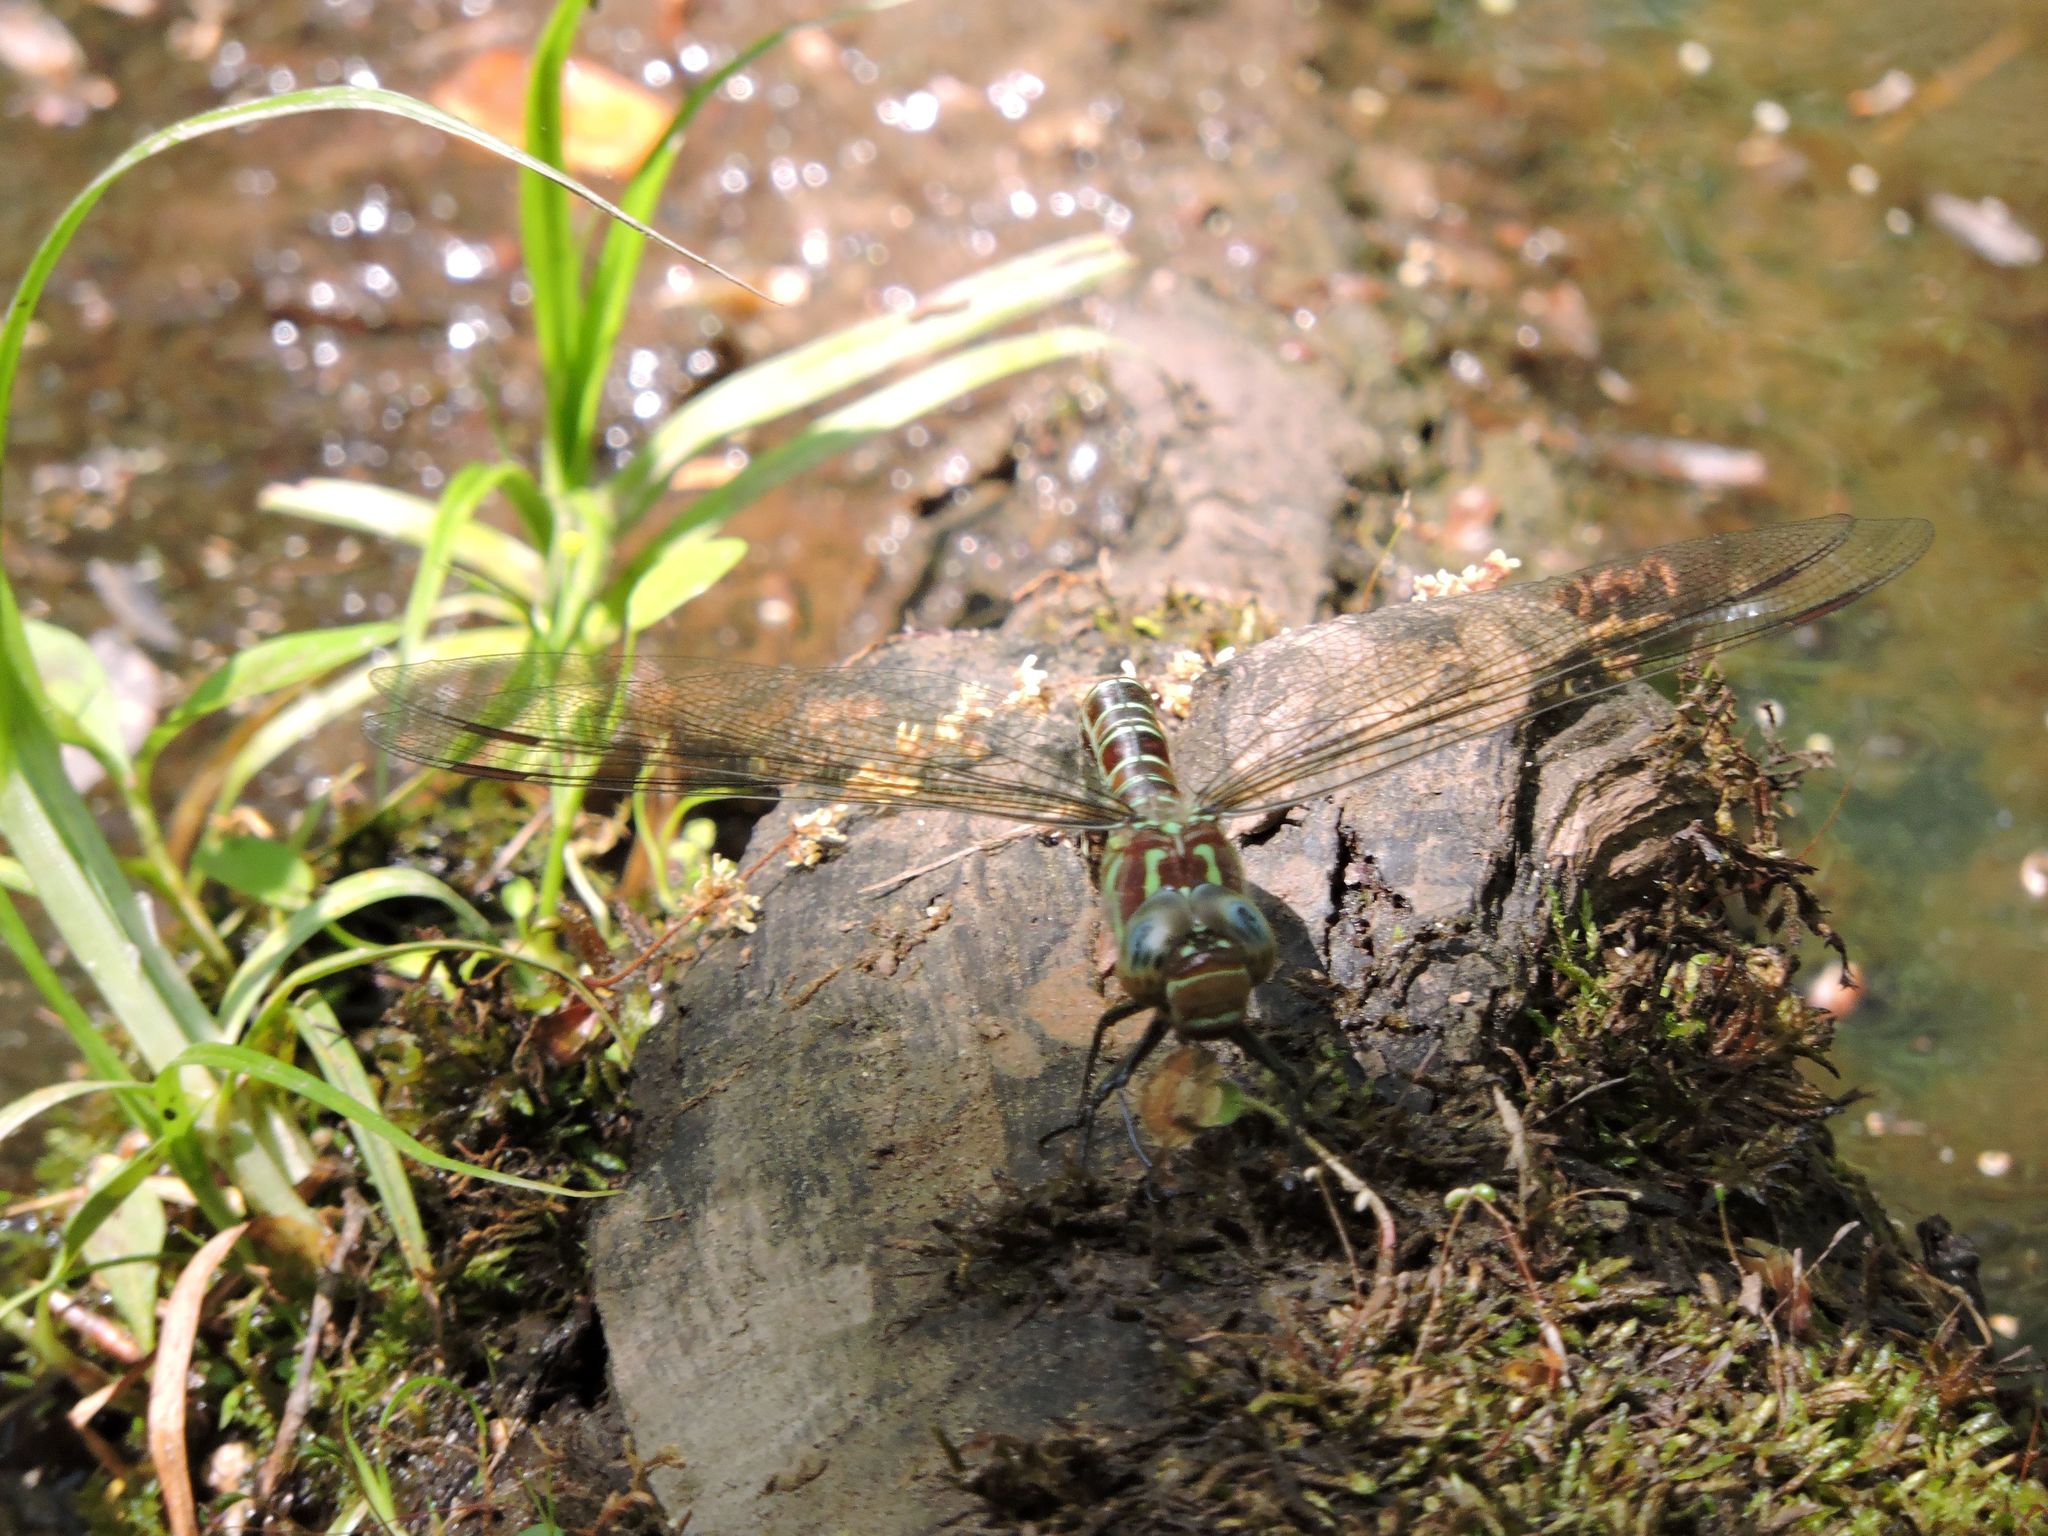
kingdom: Animalia
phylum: Arthropoda
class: Insecta
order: Odonata
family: Aeshnidae
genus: Epiaeschna
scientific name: Epiaeschna heros
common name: Swamp darner
